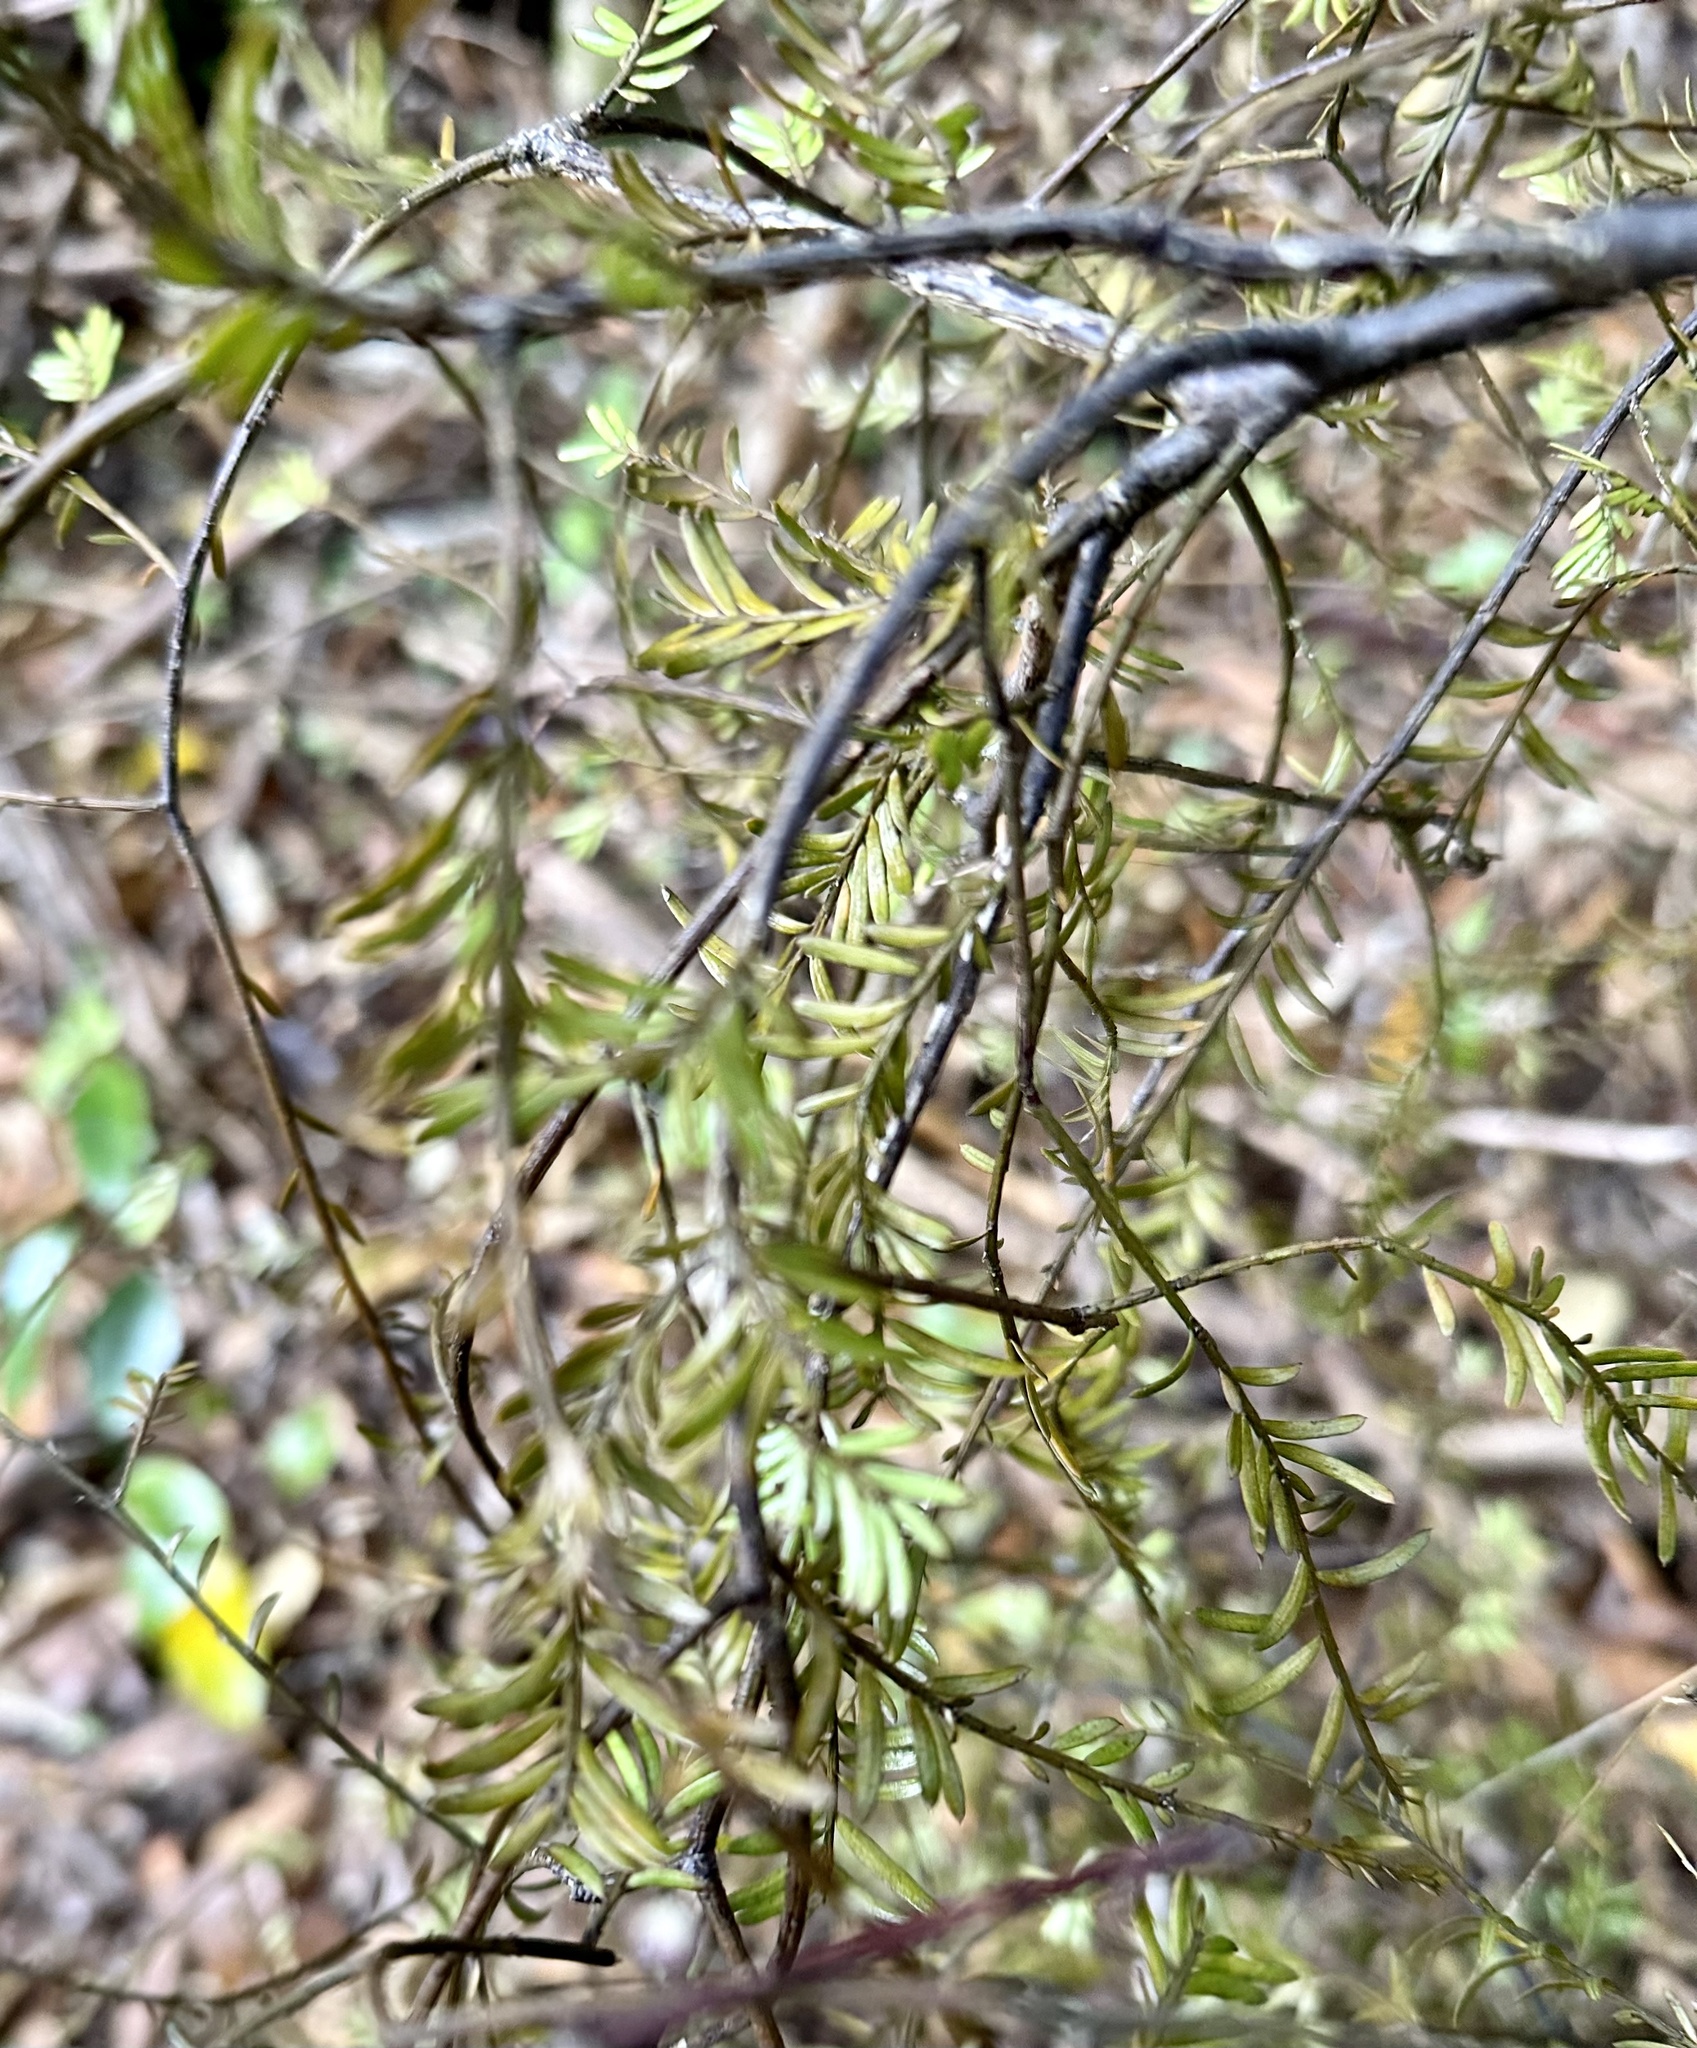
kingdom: Plantae
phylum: Tracheophyta
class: Pinopsida
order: Pinales
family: Podocarpaceae
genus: Prumnopitys
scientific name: Prumnopitys taxifolia
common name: Matai
